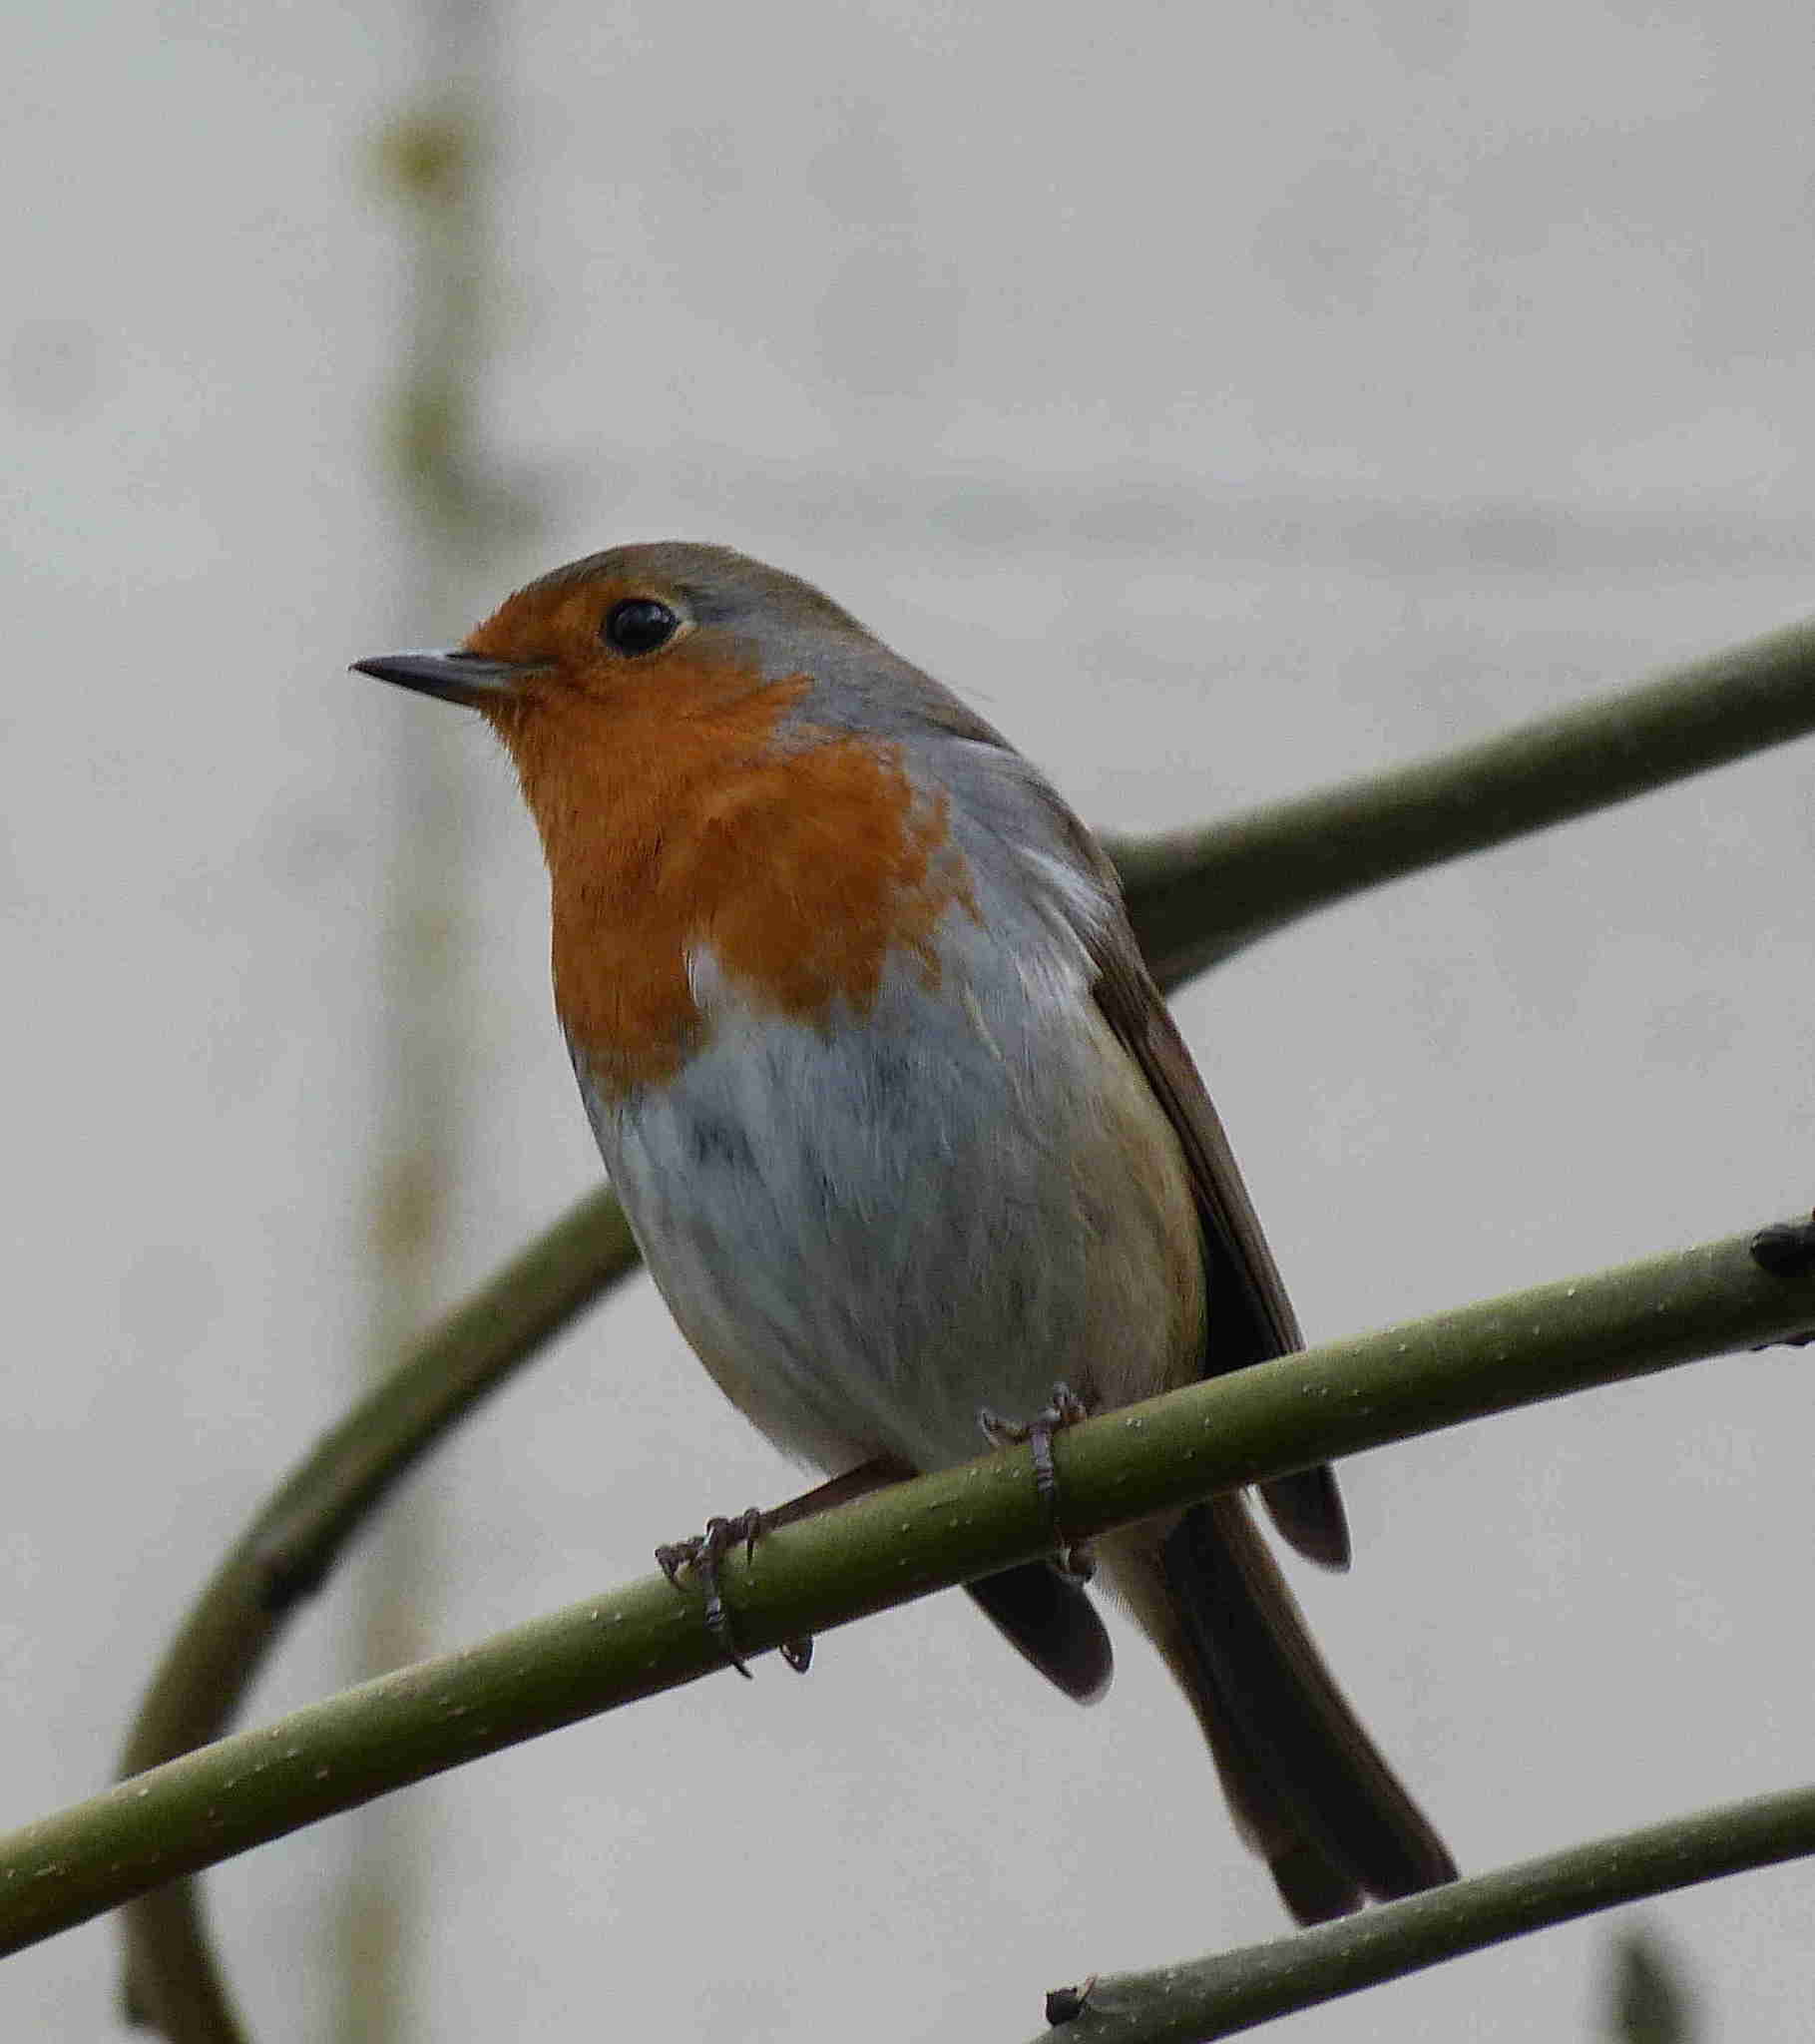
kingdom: Animalia
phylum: Chordata
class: Aves
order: Passeriformes
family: Muscicapidae
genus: Erithacus
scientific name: Erithacus rubecula
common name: European robin
